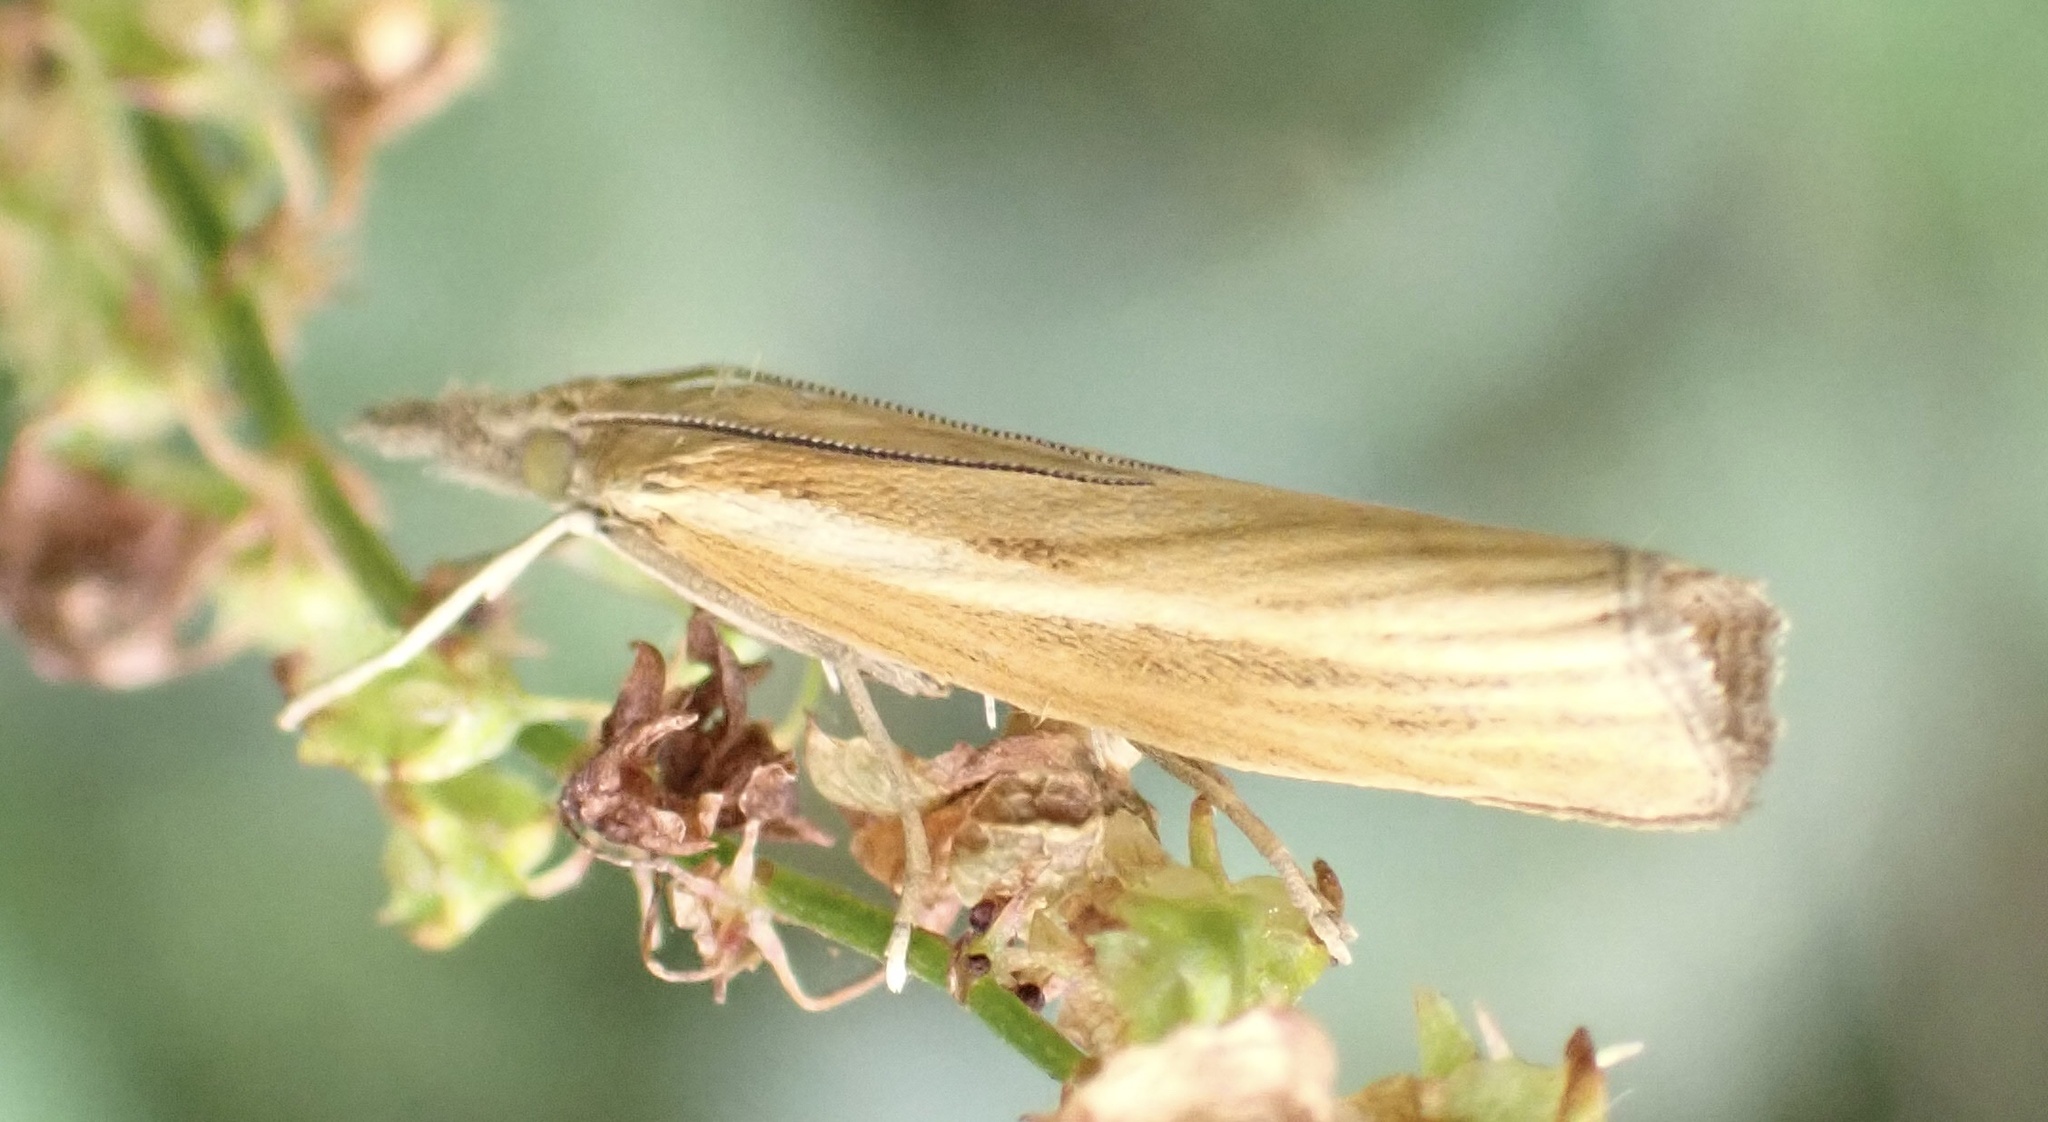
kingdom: Animalia
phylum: Arthropoda
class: Insecta
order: Lepidoptera
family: Crambidae
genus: Agriphila
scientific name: Agriphila tristellus
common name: Common grass-veneer
